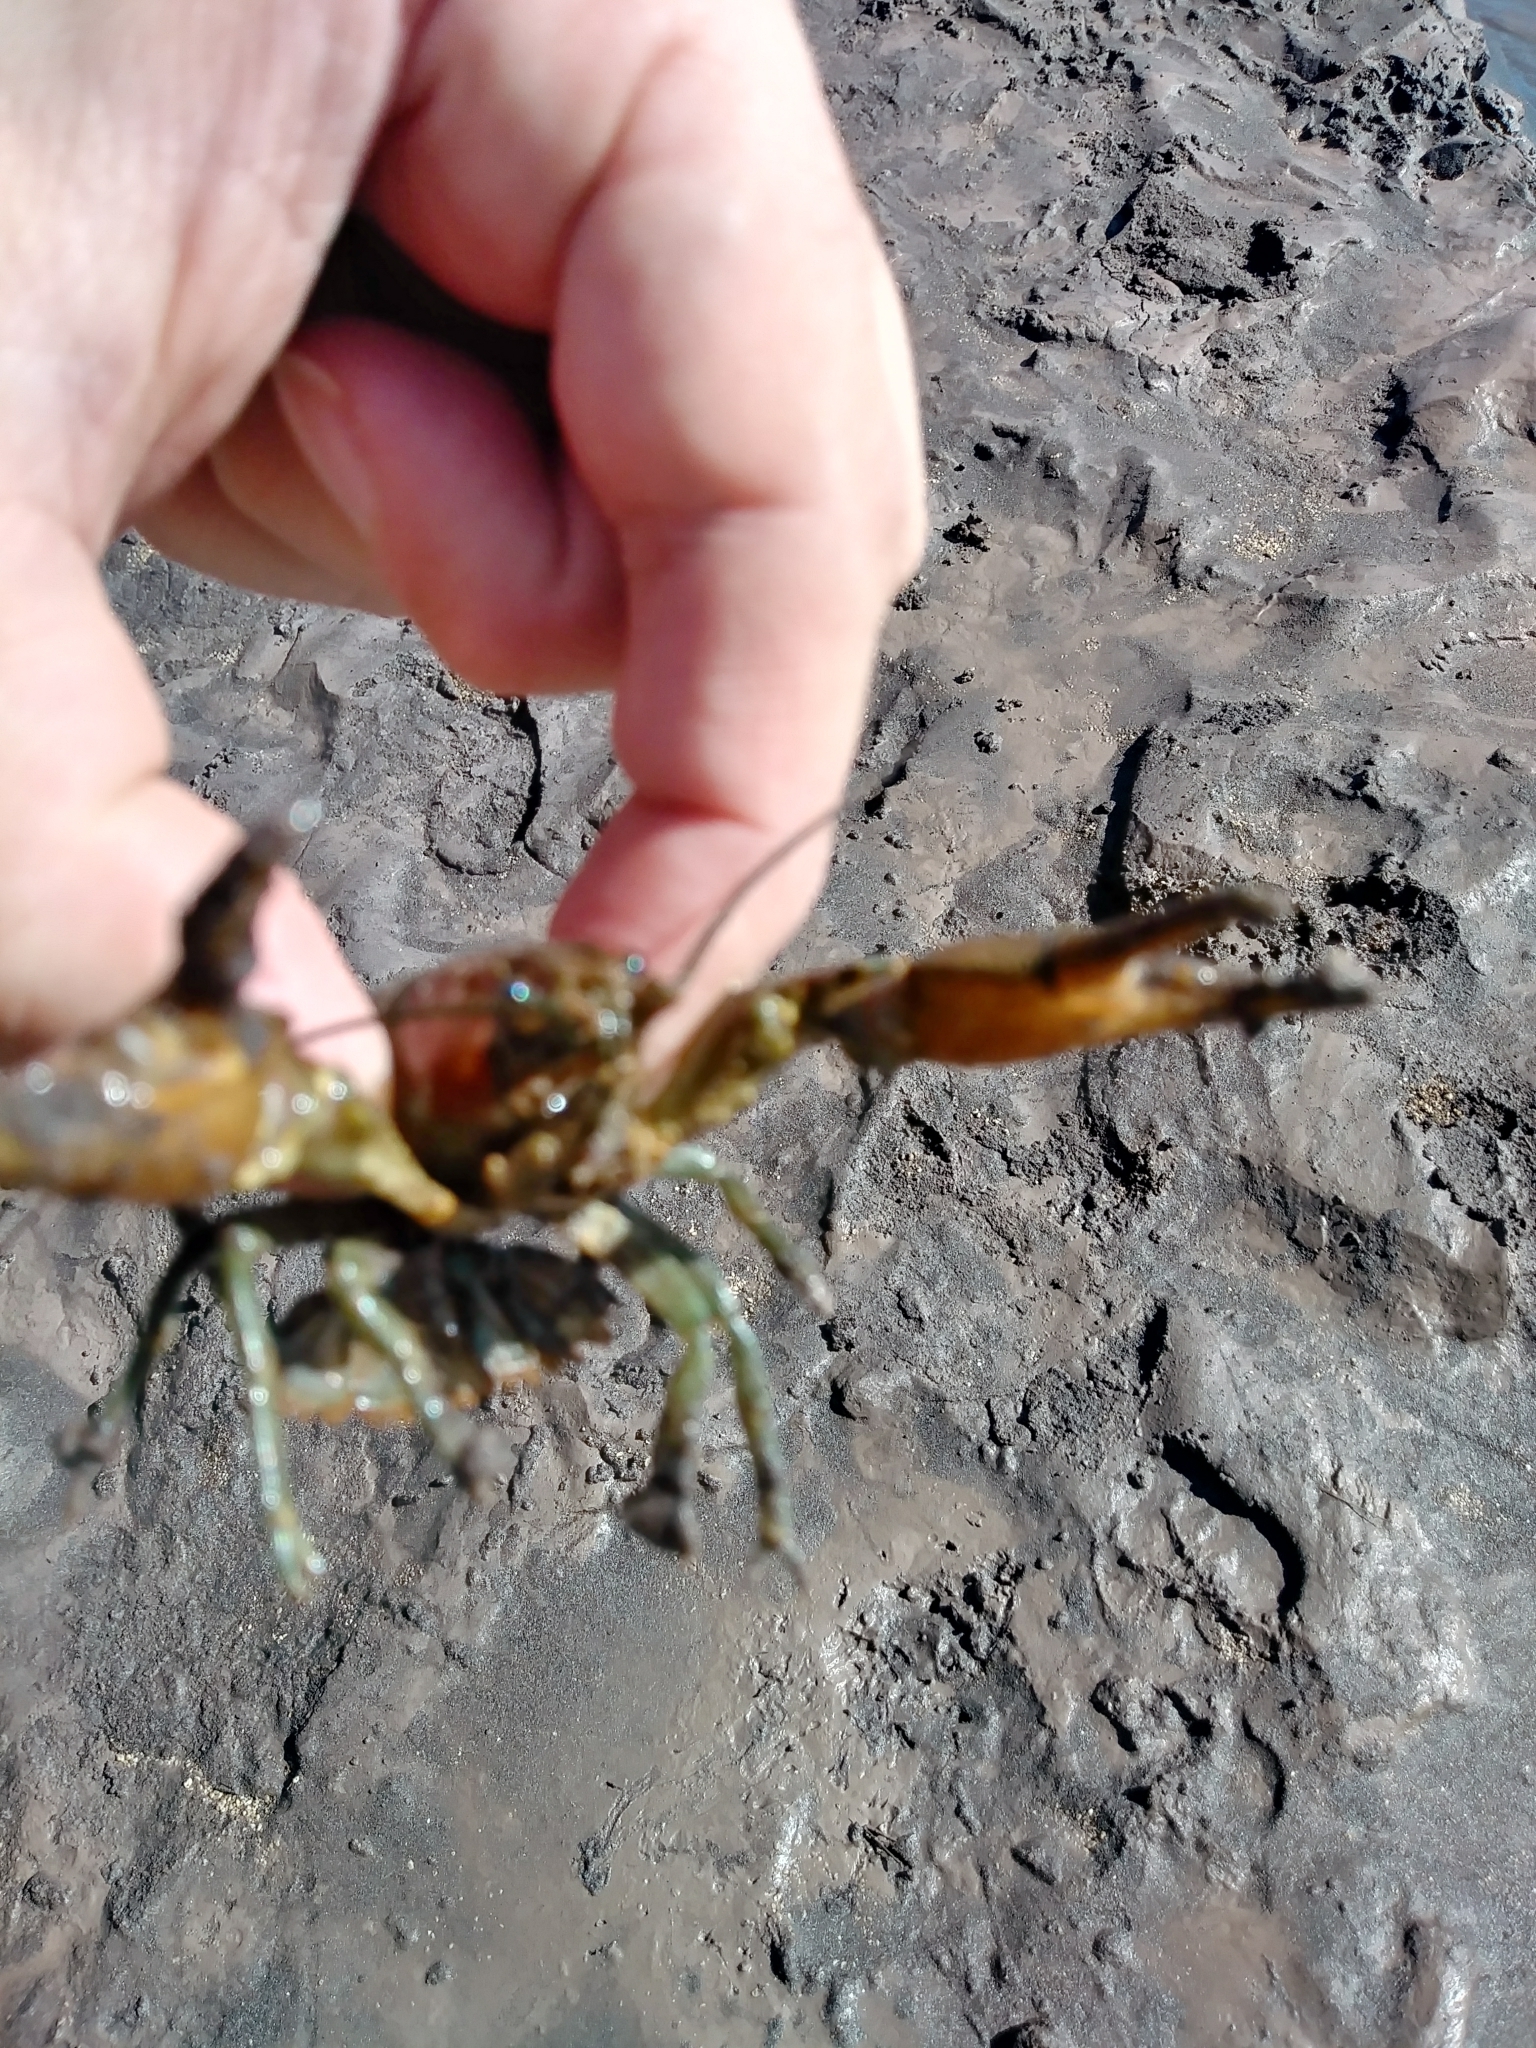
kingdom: Animalia
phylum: Arthropoda
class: Malacostraca
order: Decapoda
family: Astacidae
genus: Pacifastacus
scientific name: Pacifastacus leniusculus
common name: Signal crayfish
